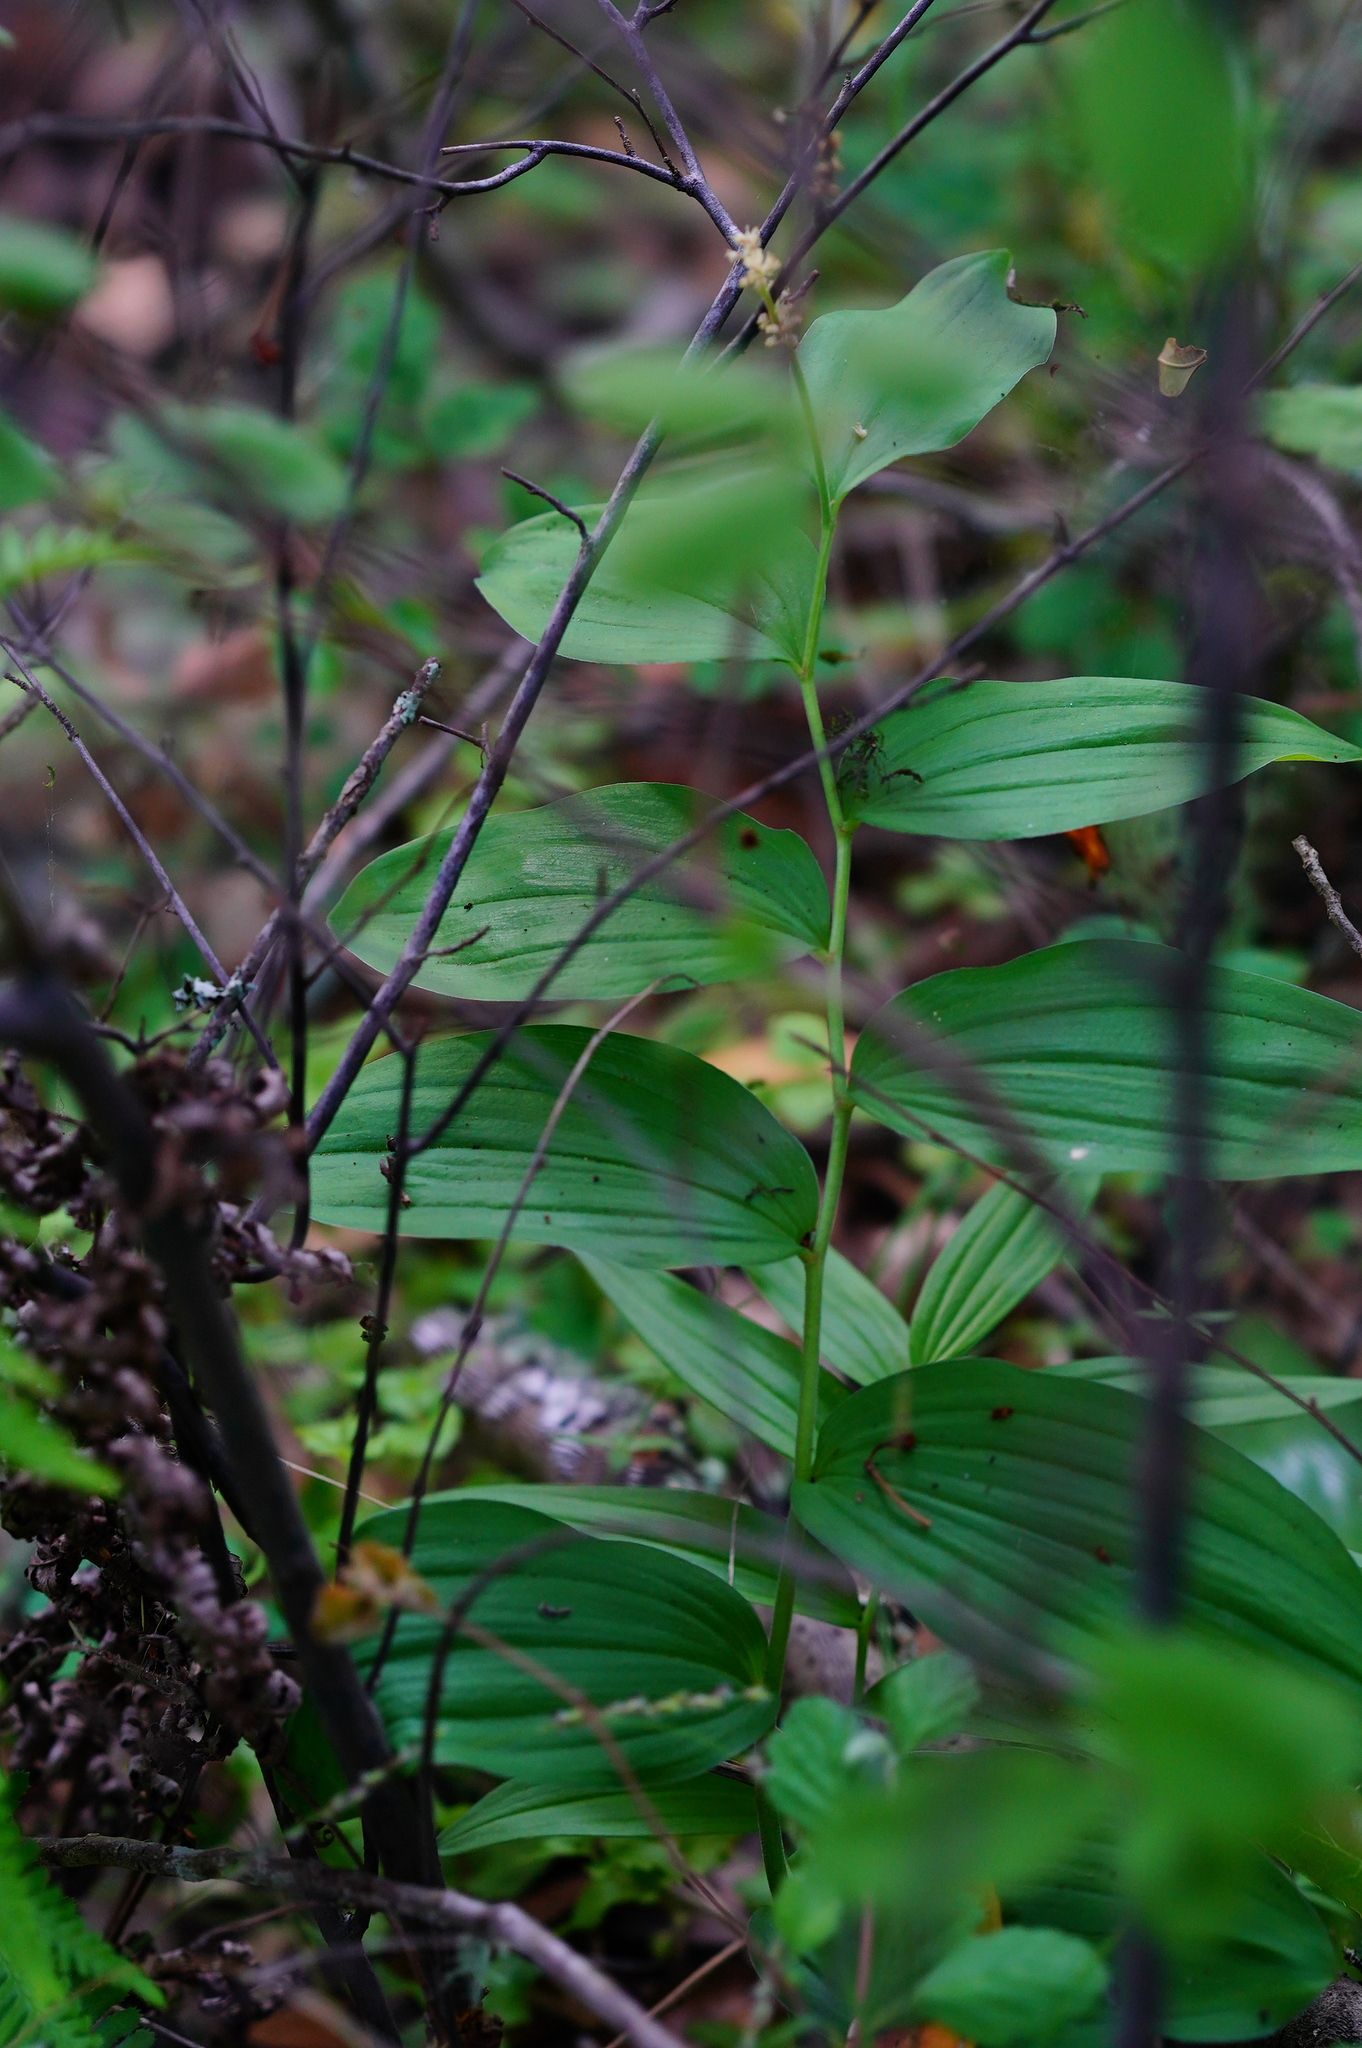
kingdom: Plantae
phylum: Tracheophyta
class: Liliopsida
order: Asparagales
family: Asparagaceae
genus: Maianthemum
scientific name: Maianthemum racemosum
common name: False spikenard
